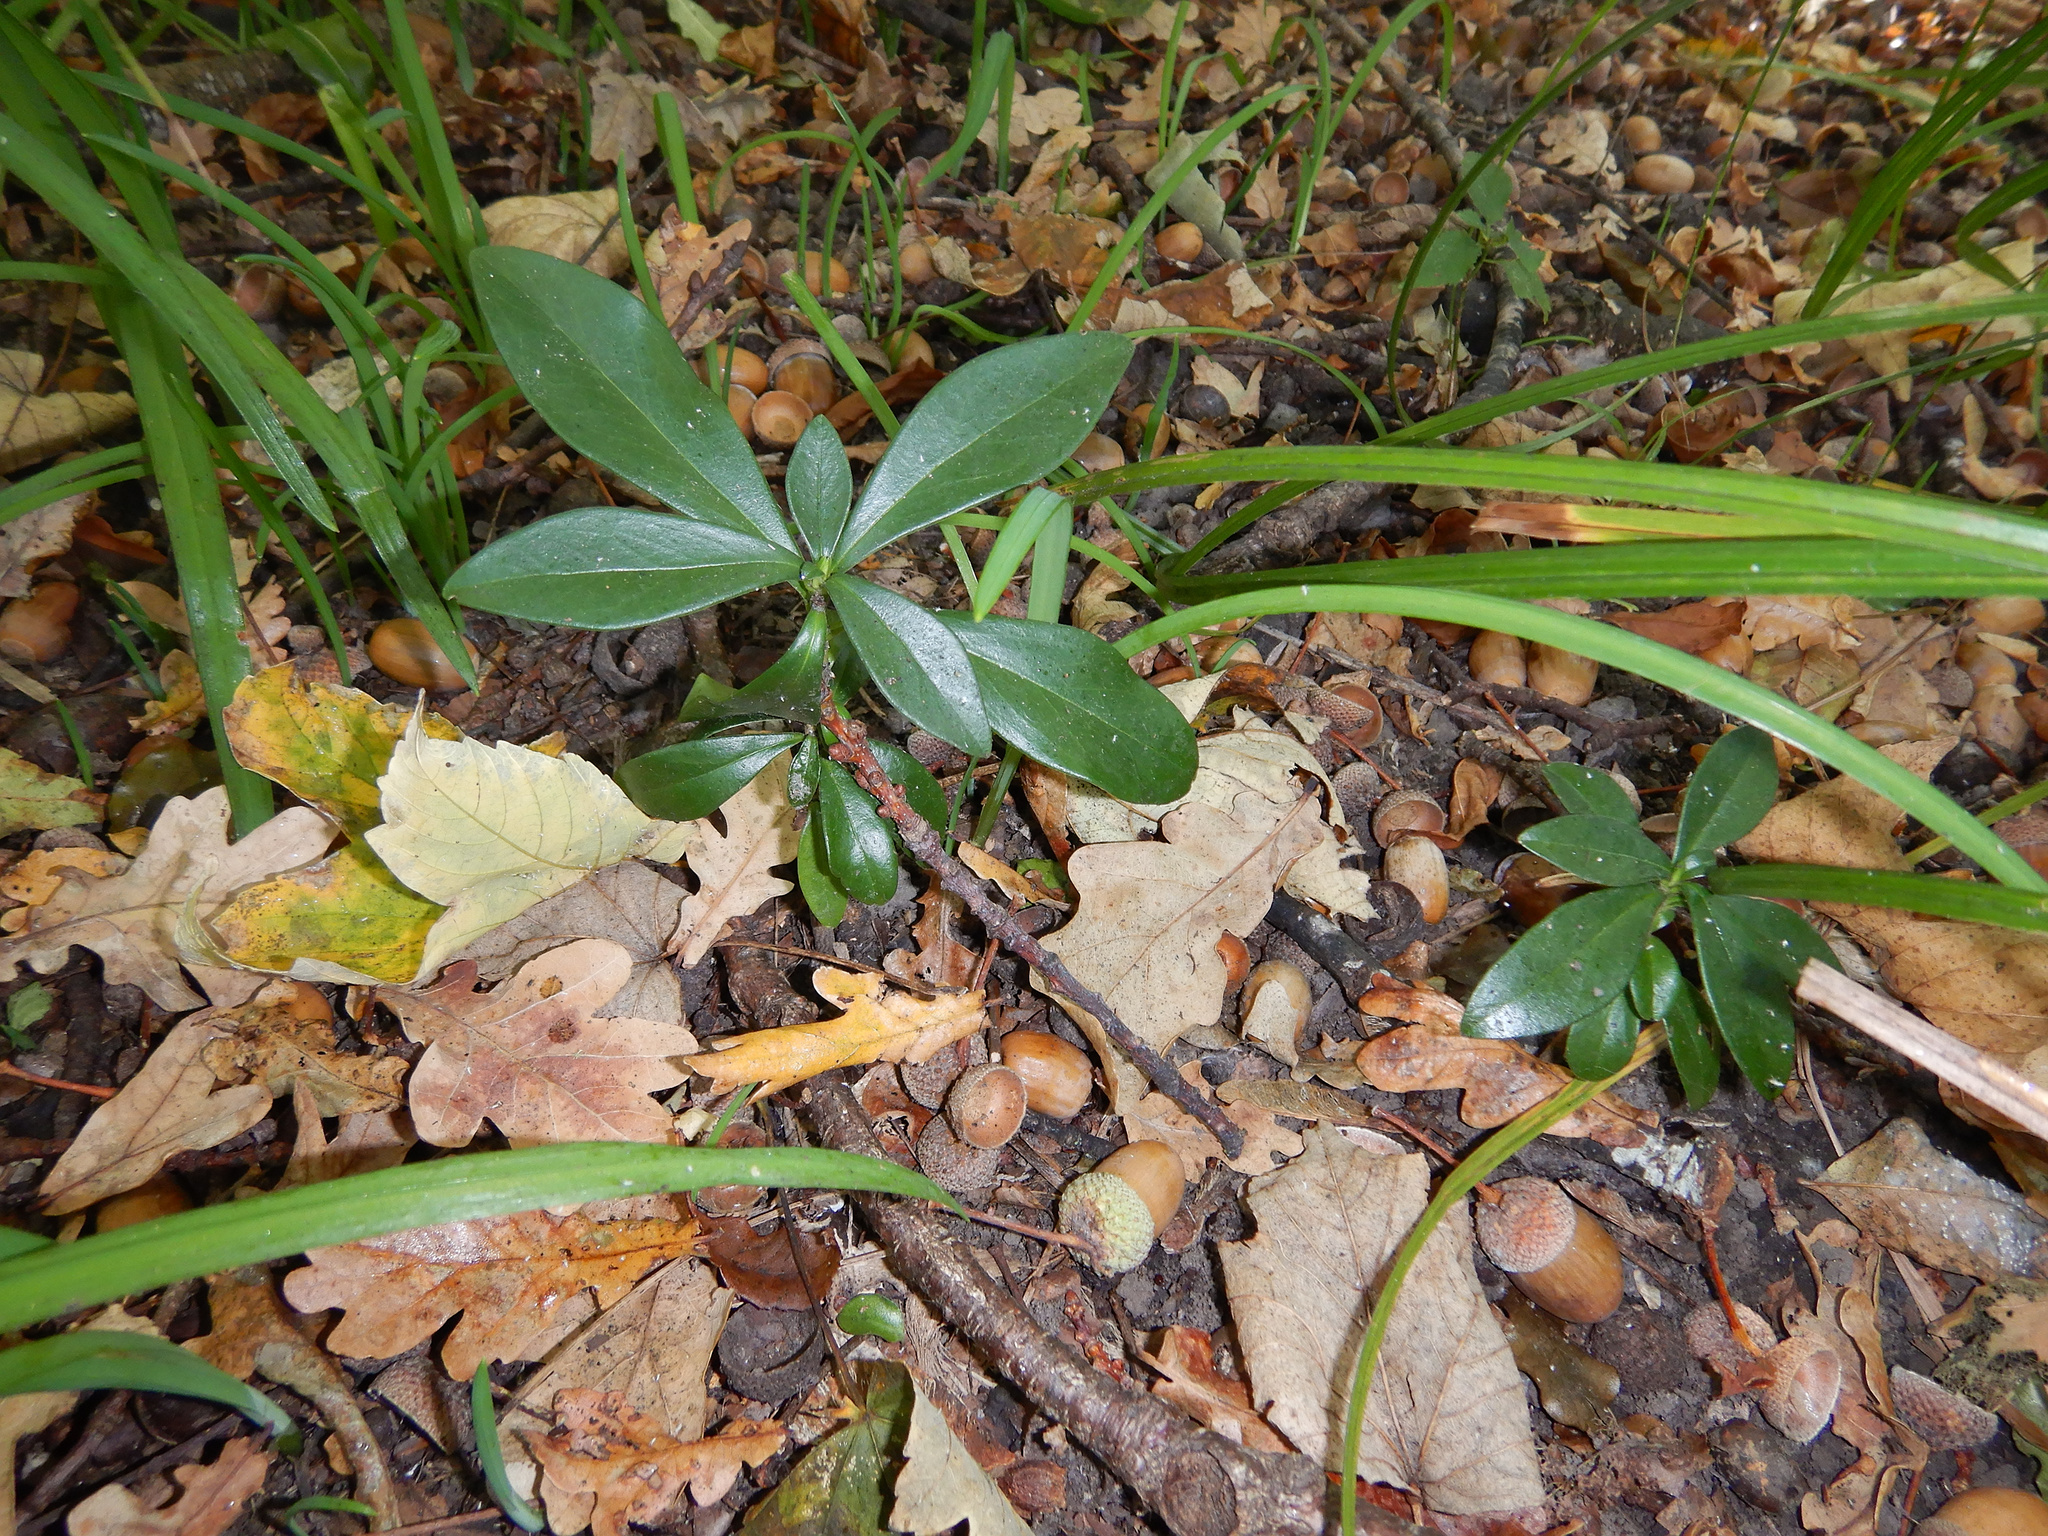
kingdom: Plantae
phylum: Tracheophyta
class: Magnoliopsida
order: Malvales
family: Thymelaeaceae
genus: Daphne
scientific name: Daphne laureola
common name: Spurge-laurel
